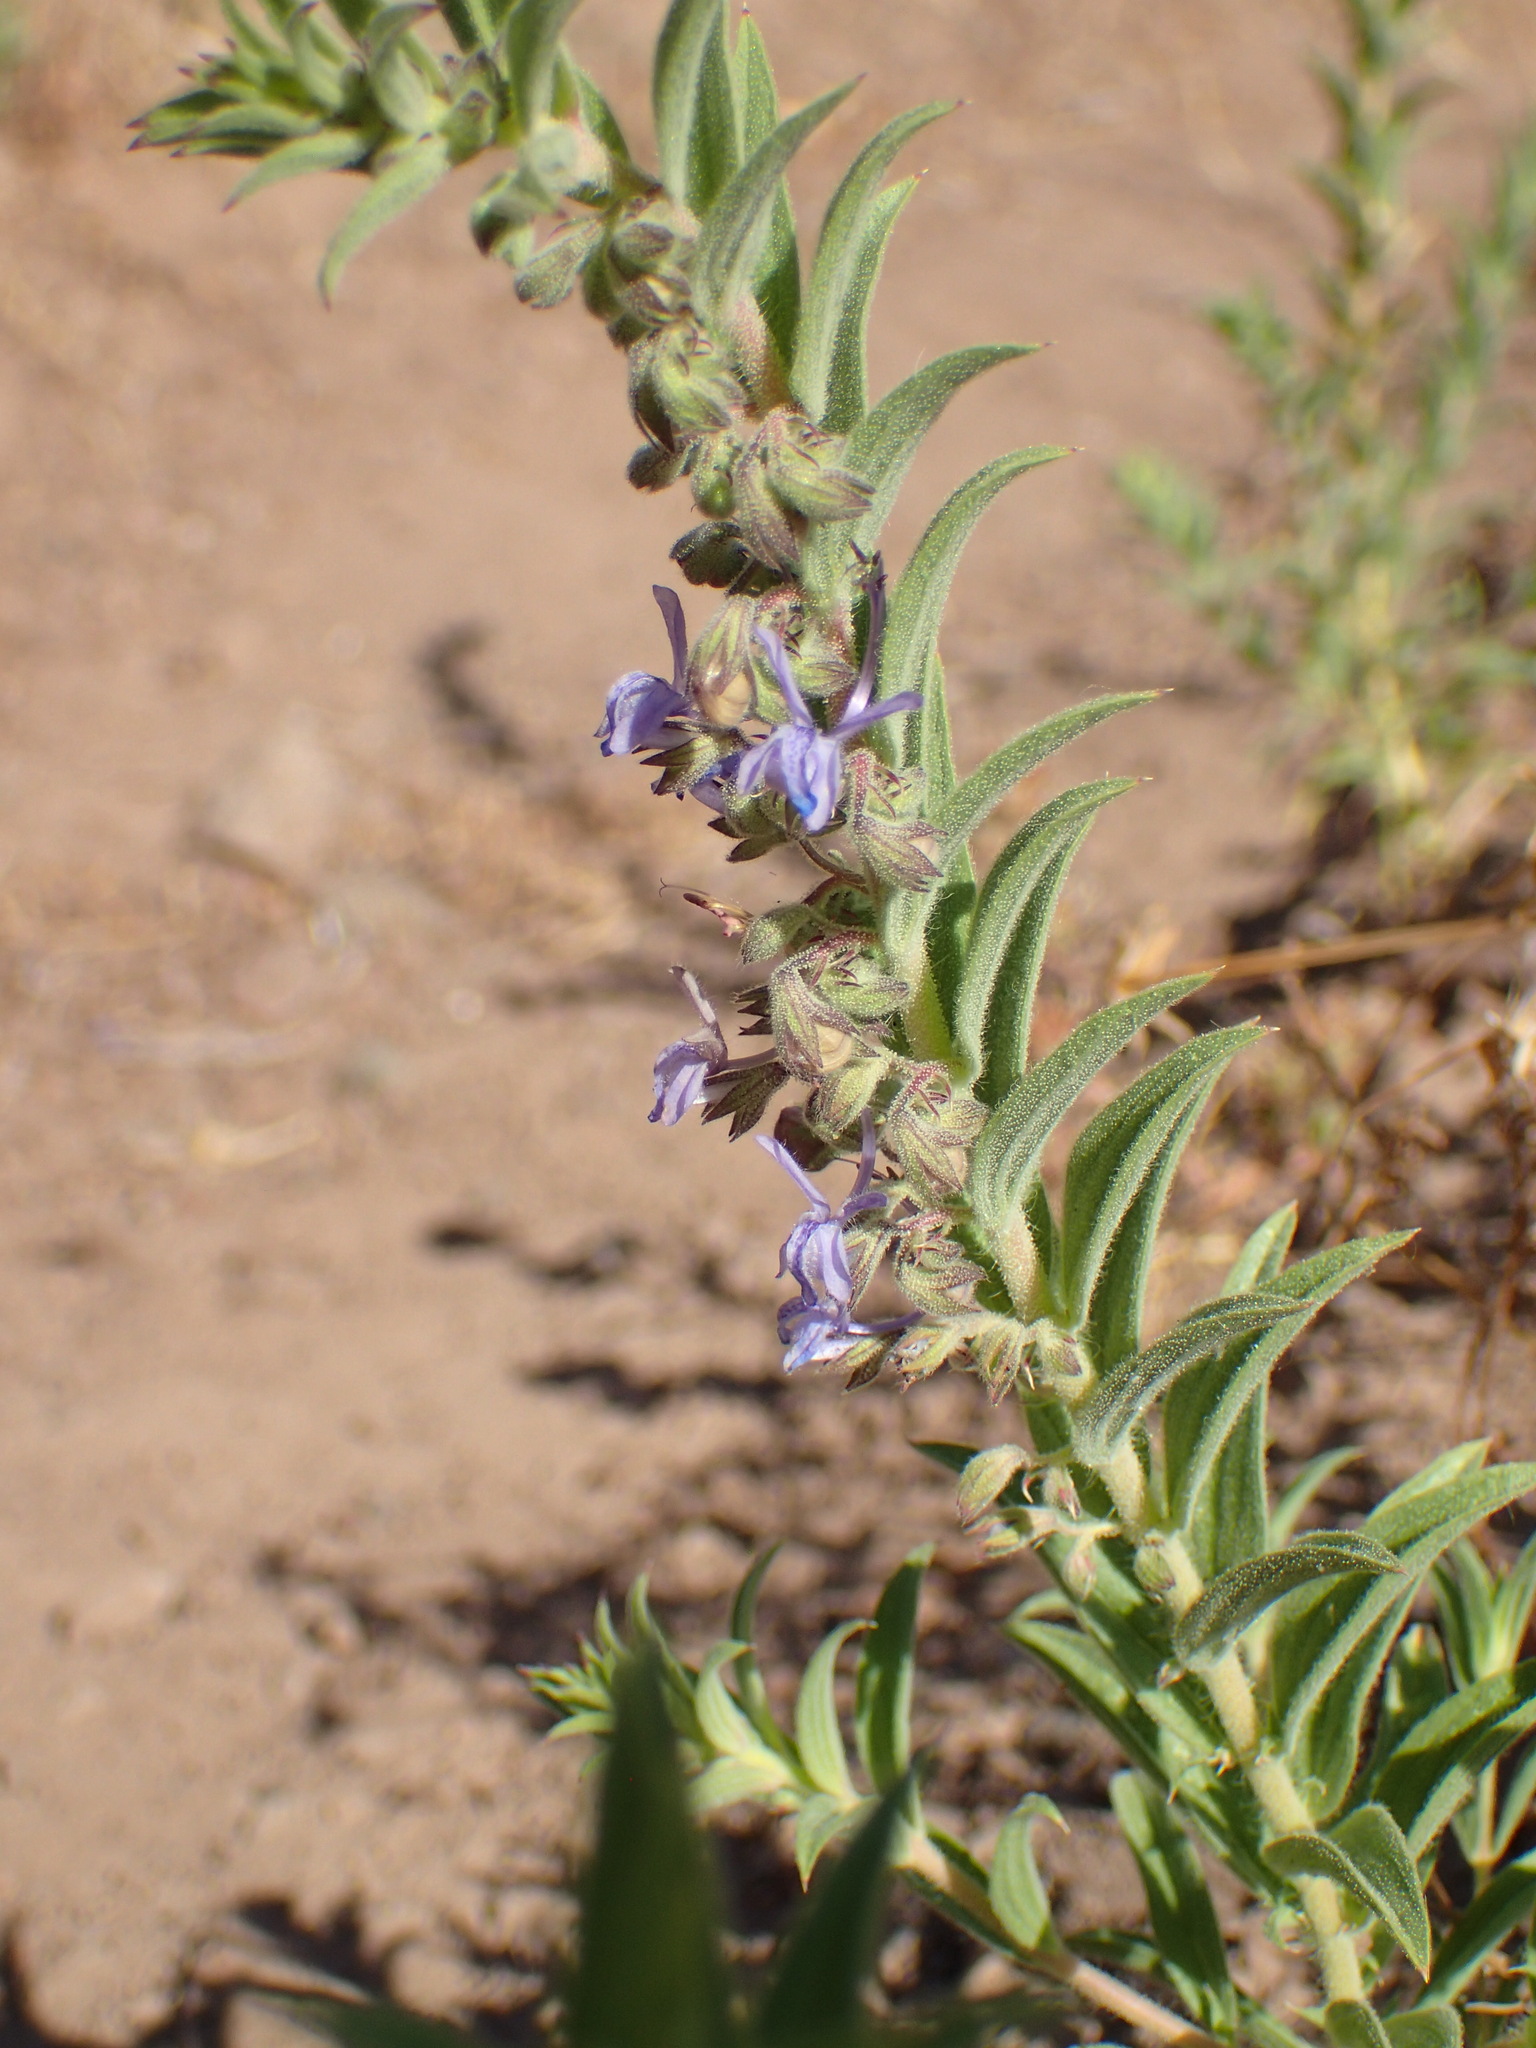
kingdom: Plantae
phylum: Tracheophyta
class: Magnoliopsida
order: Lamiales
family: Lamiaceae
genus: Trichostema
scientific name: Trichostema lanceolatum
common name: Vinegar-weed
